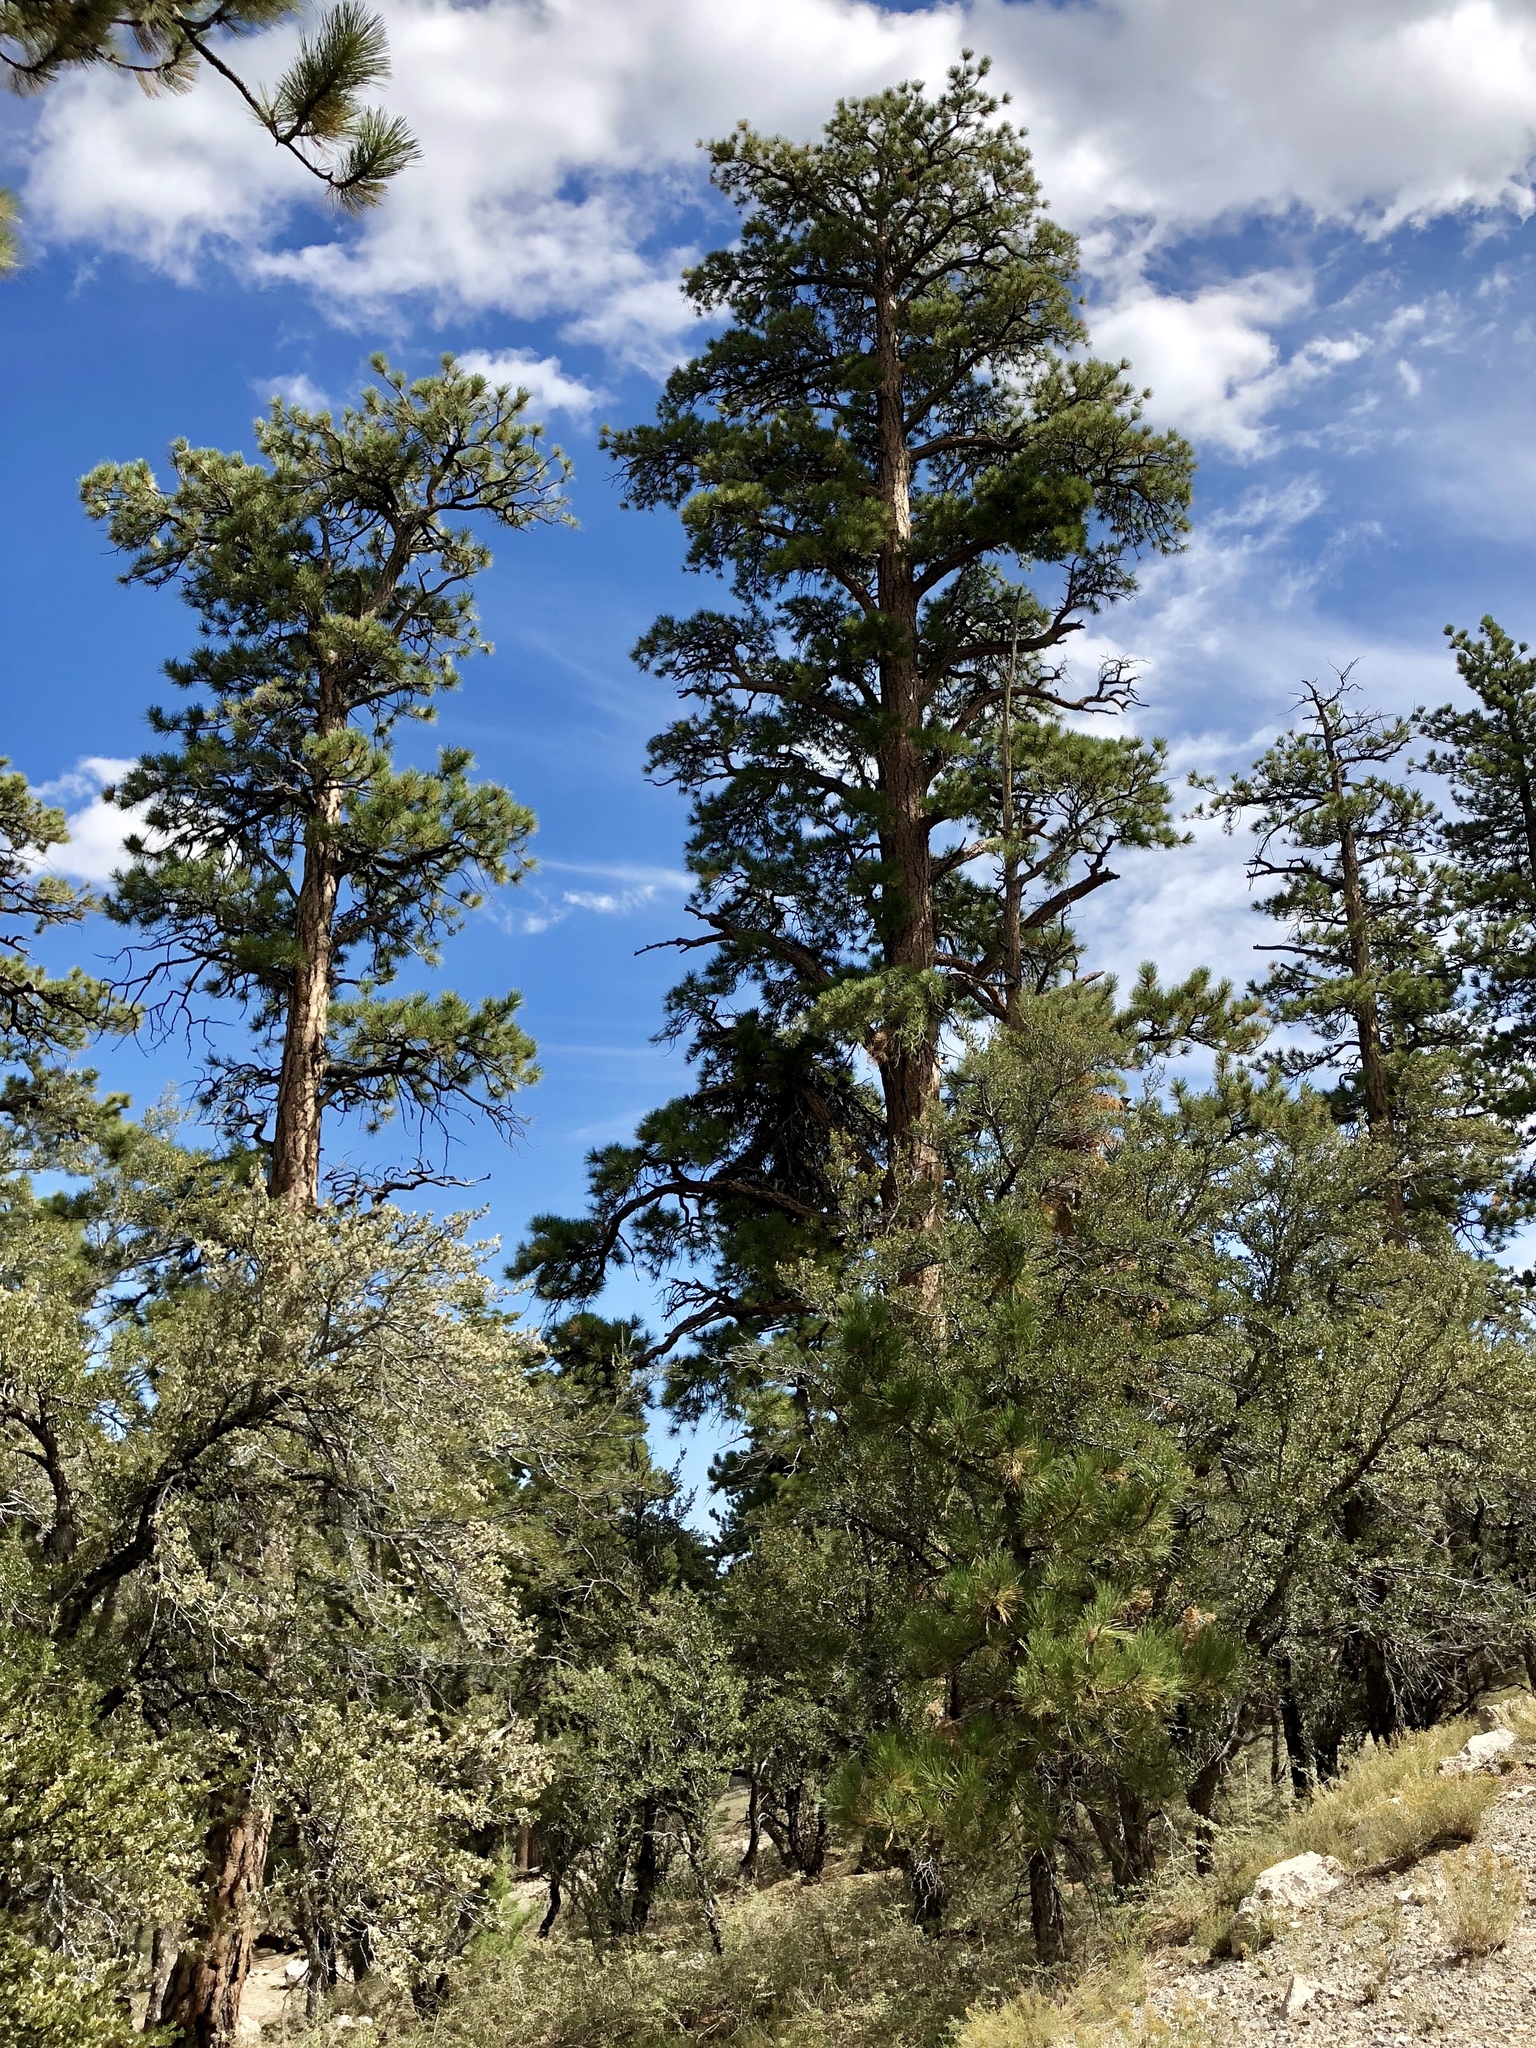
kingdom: Plantae
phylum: Tracheophyta
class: Pinopsida
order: Pinales
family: Pinaceae
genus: Pinus
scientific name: Pinus ponderosa
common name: Western yellow-pine
